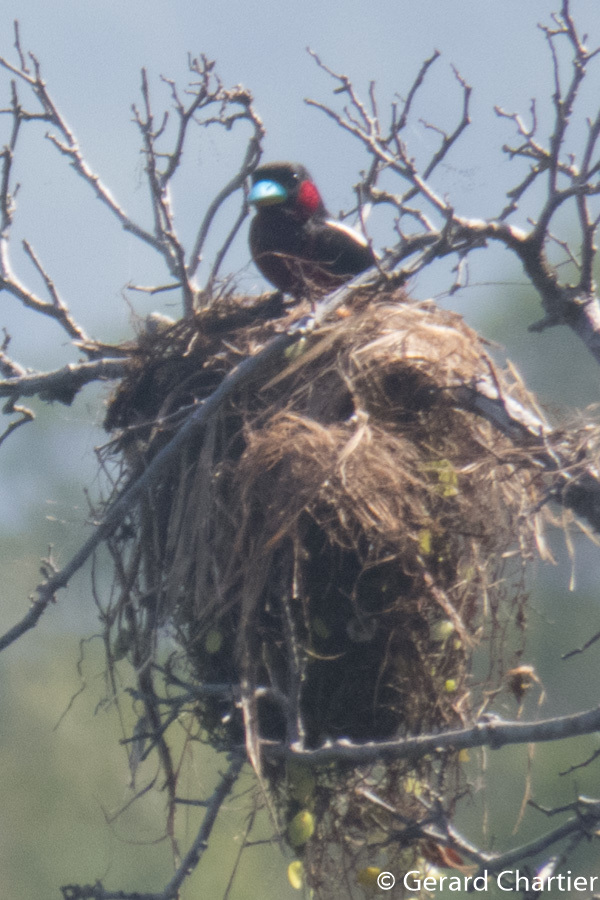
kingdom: Animalia
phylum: Chordata
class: Aves
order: Passeriformes
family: Eurylaimidae
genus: Cymbirhynchus
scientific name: Cymbirhynchus macrorhynchos
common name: Black-and-red broadbill
